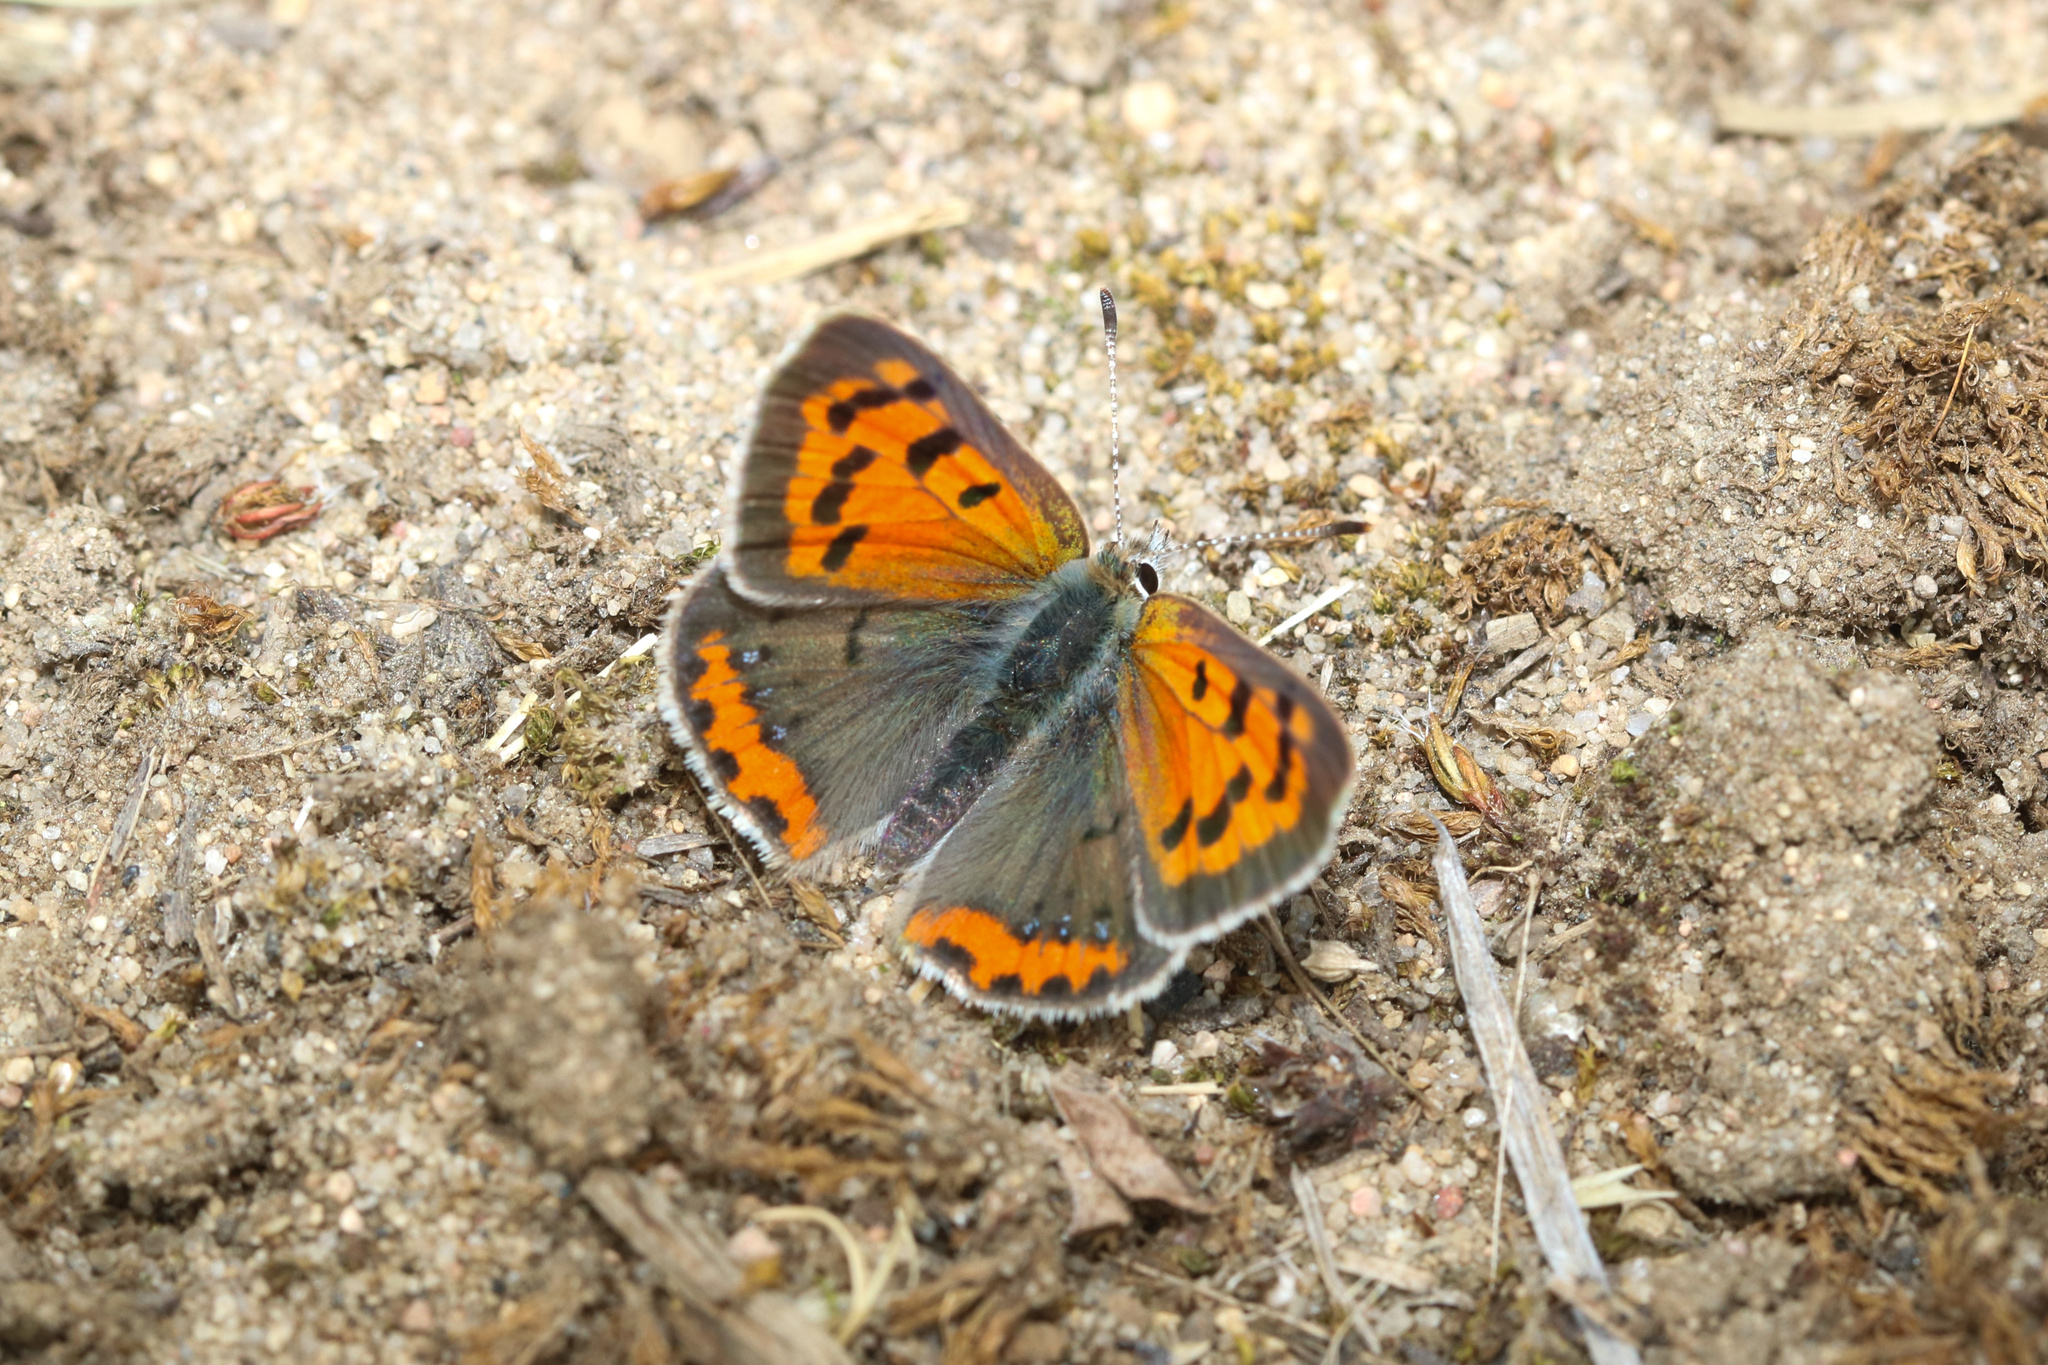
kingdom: Animalia
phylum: Arthropoda
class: Insecta
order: Lepidoptera
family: Lycaenidae
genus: Lycaena
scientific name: Lycaena hypophlaeas
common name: American copper
